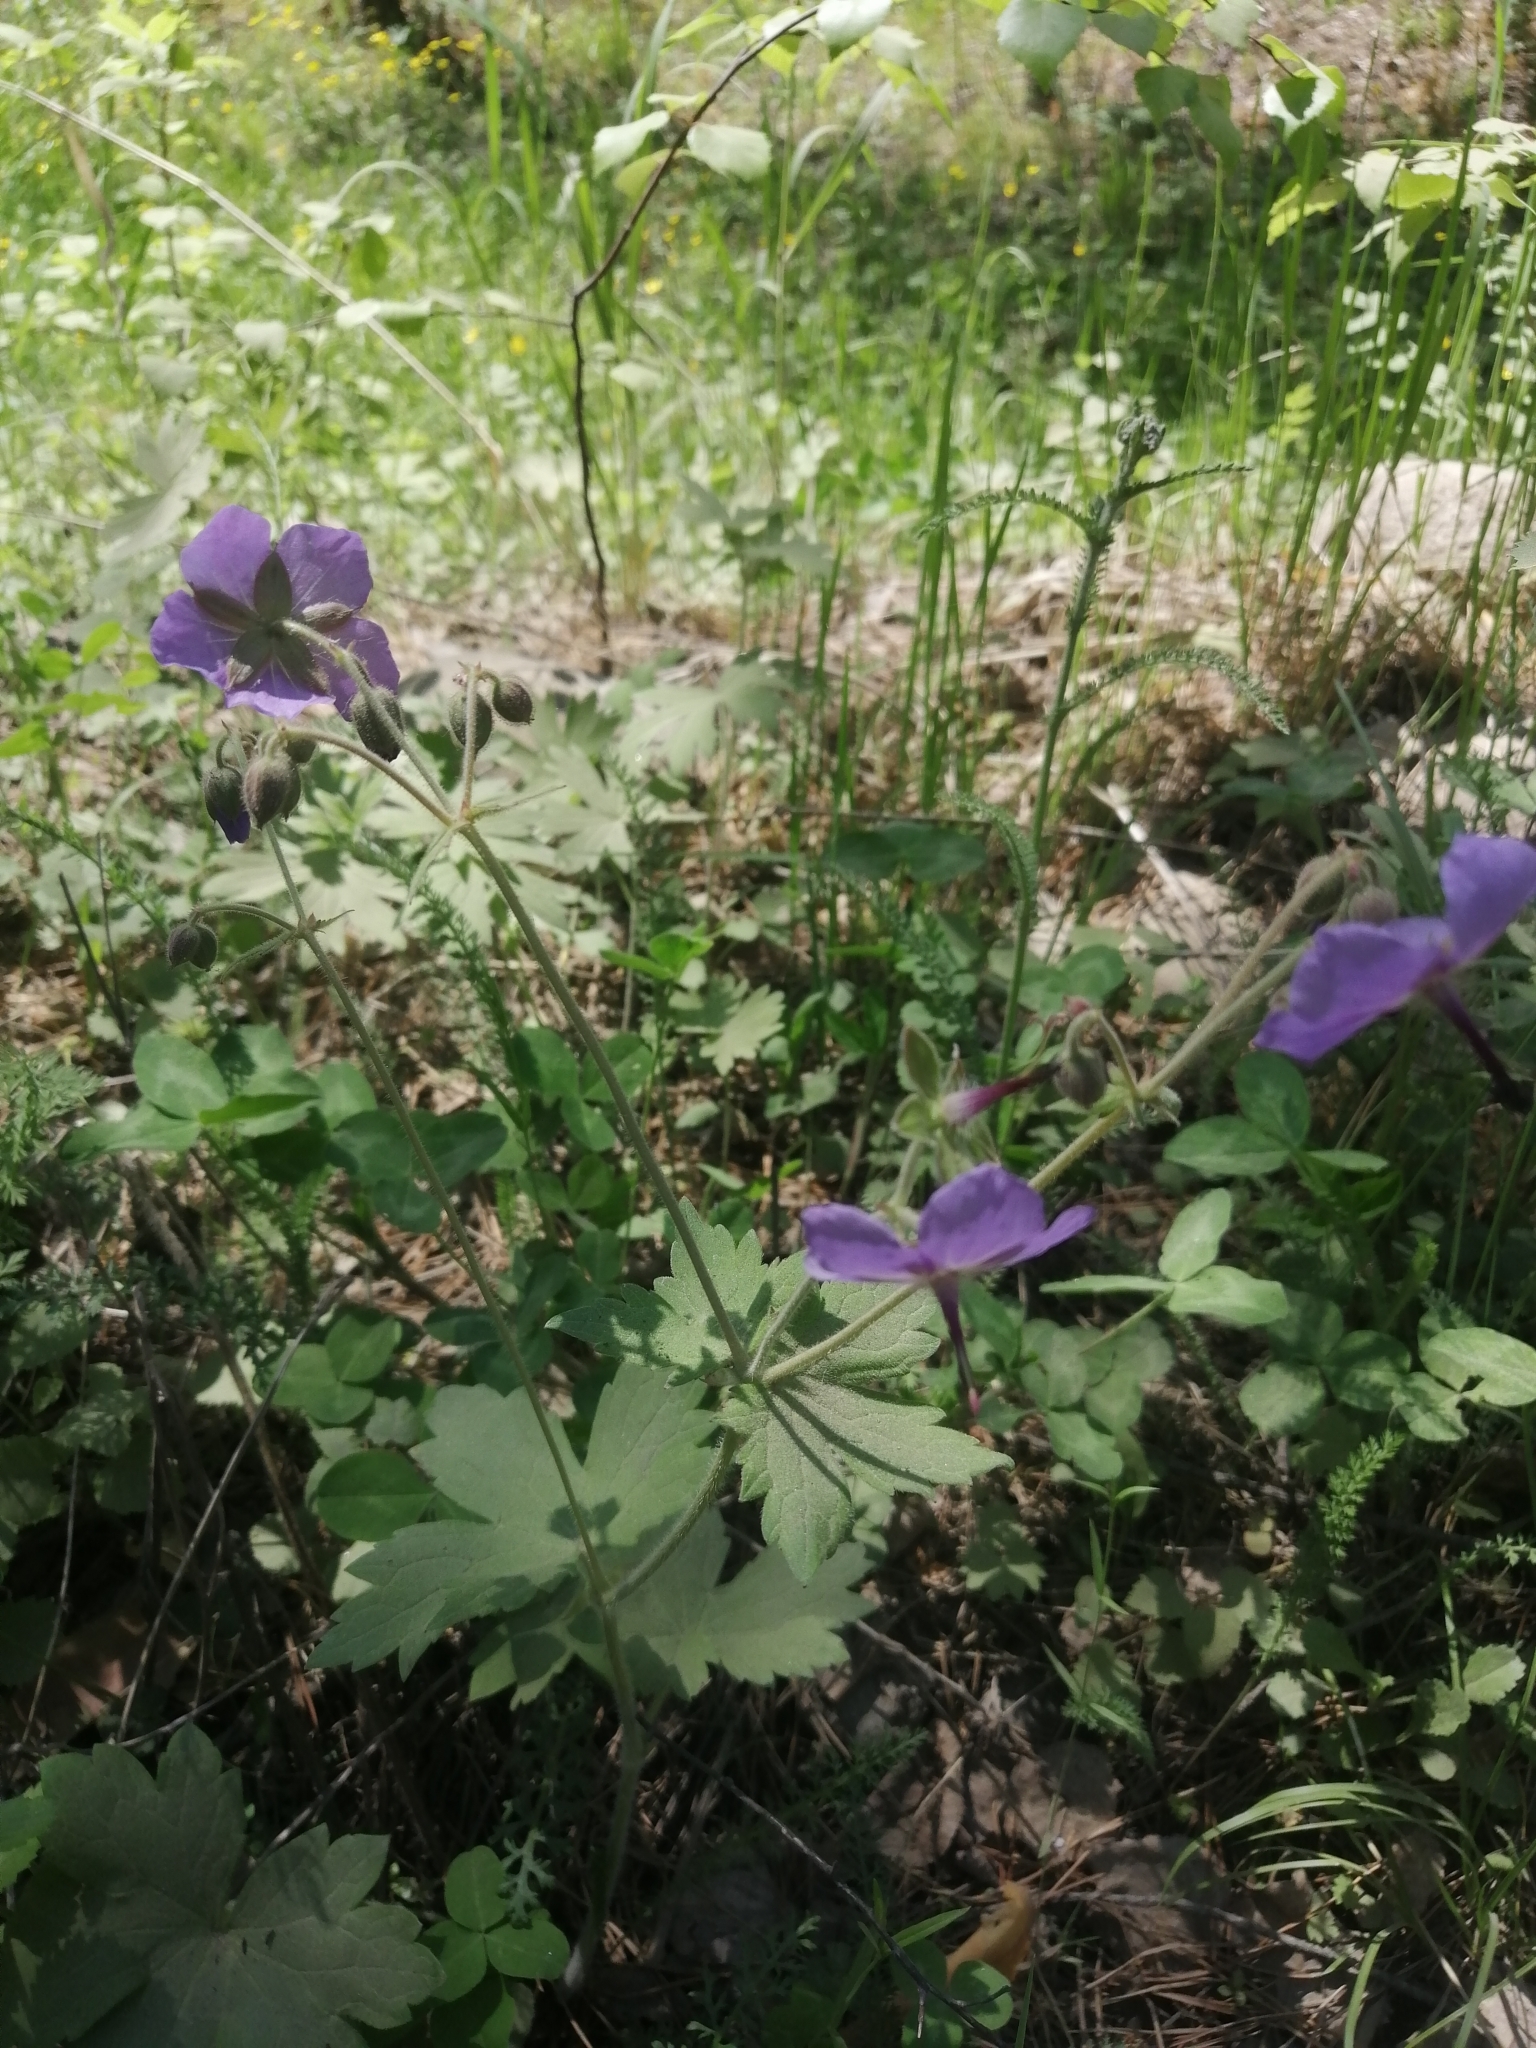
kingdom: Plantae
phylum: Tracheophyta
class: Magnoliopsida
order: Geraniales
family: Geraniaceae
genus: Geranium
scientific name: Geranium platyanthum
